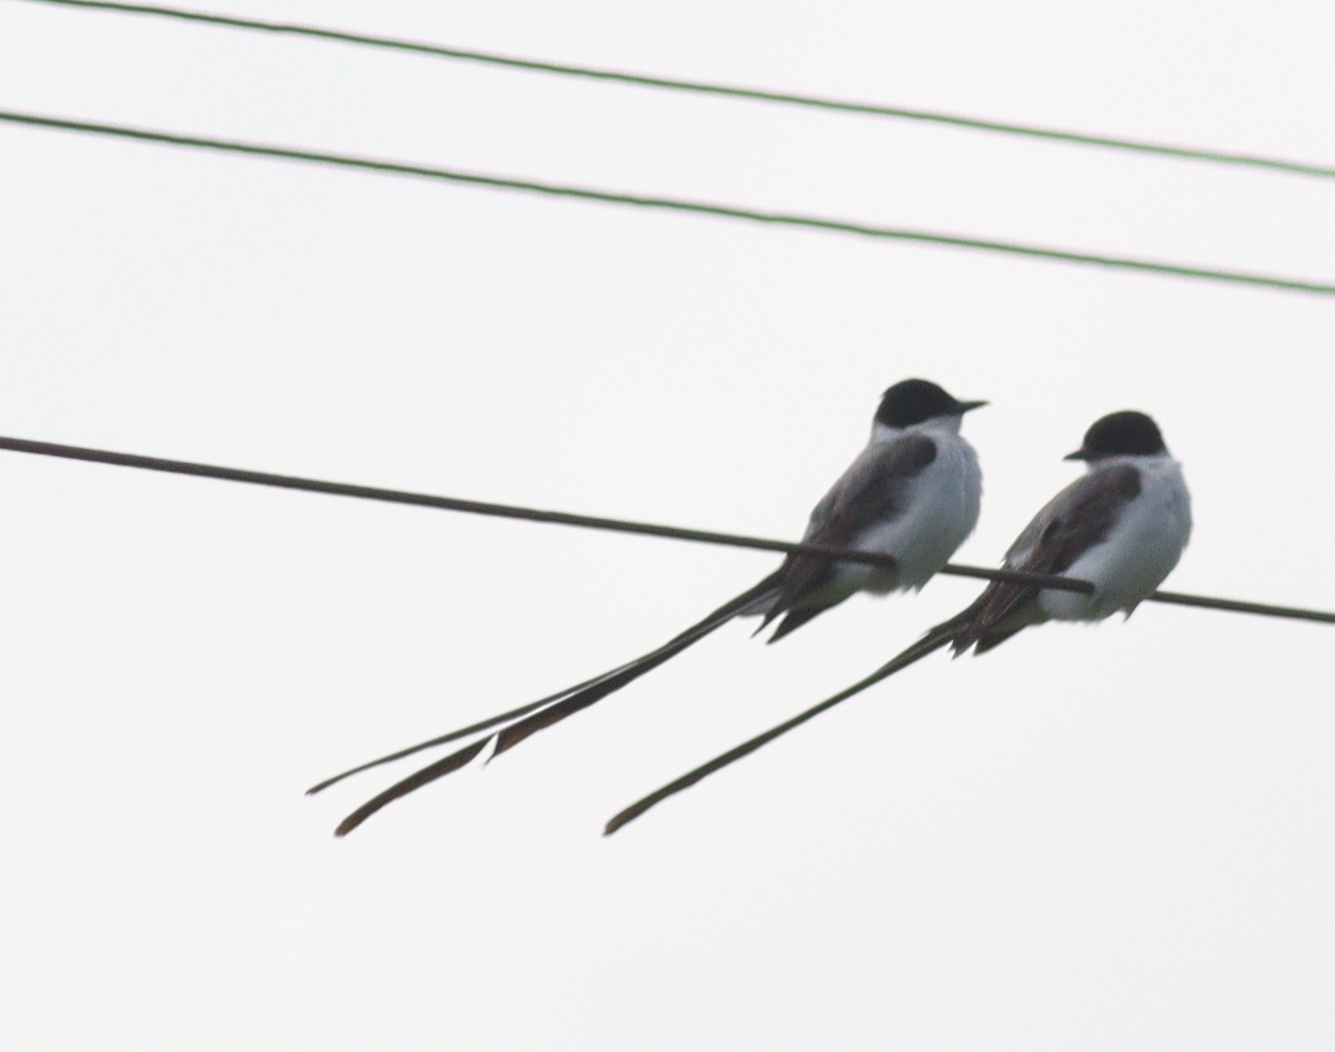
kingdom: Animalia
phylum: Chordata
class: Aves
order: Passeriformes
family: Tyrannidae
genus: Tyrannus
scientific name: Tyrannus savana
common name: Fork-tailed flycatcher
